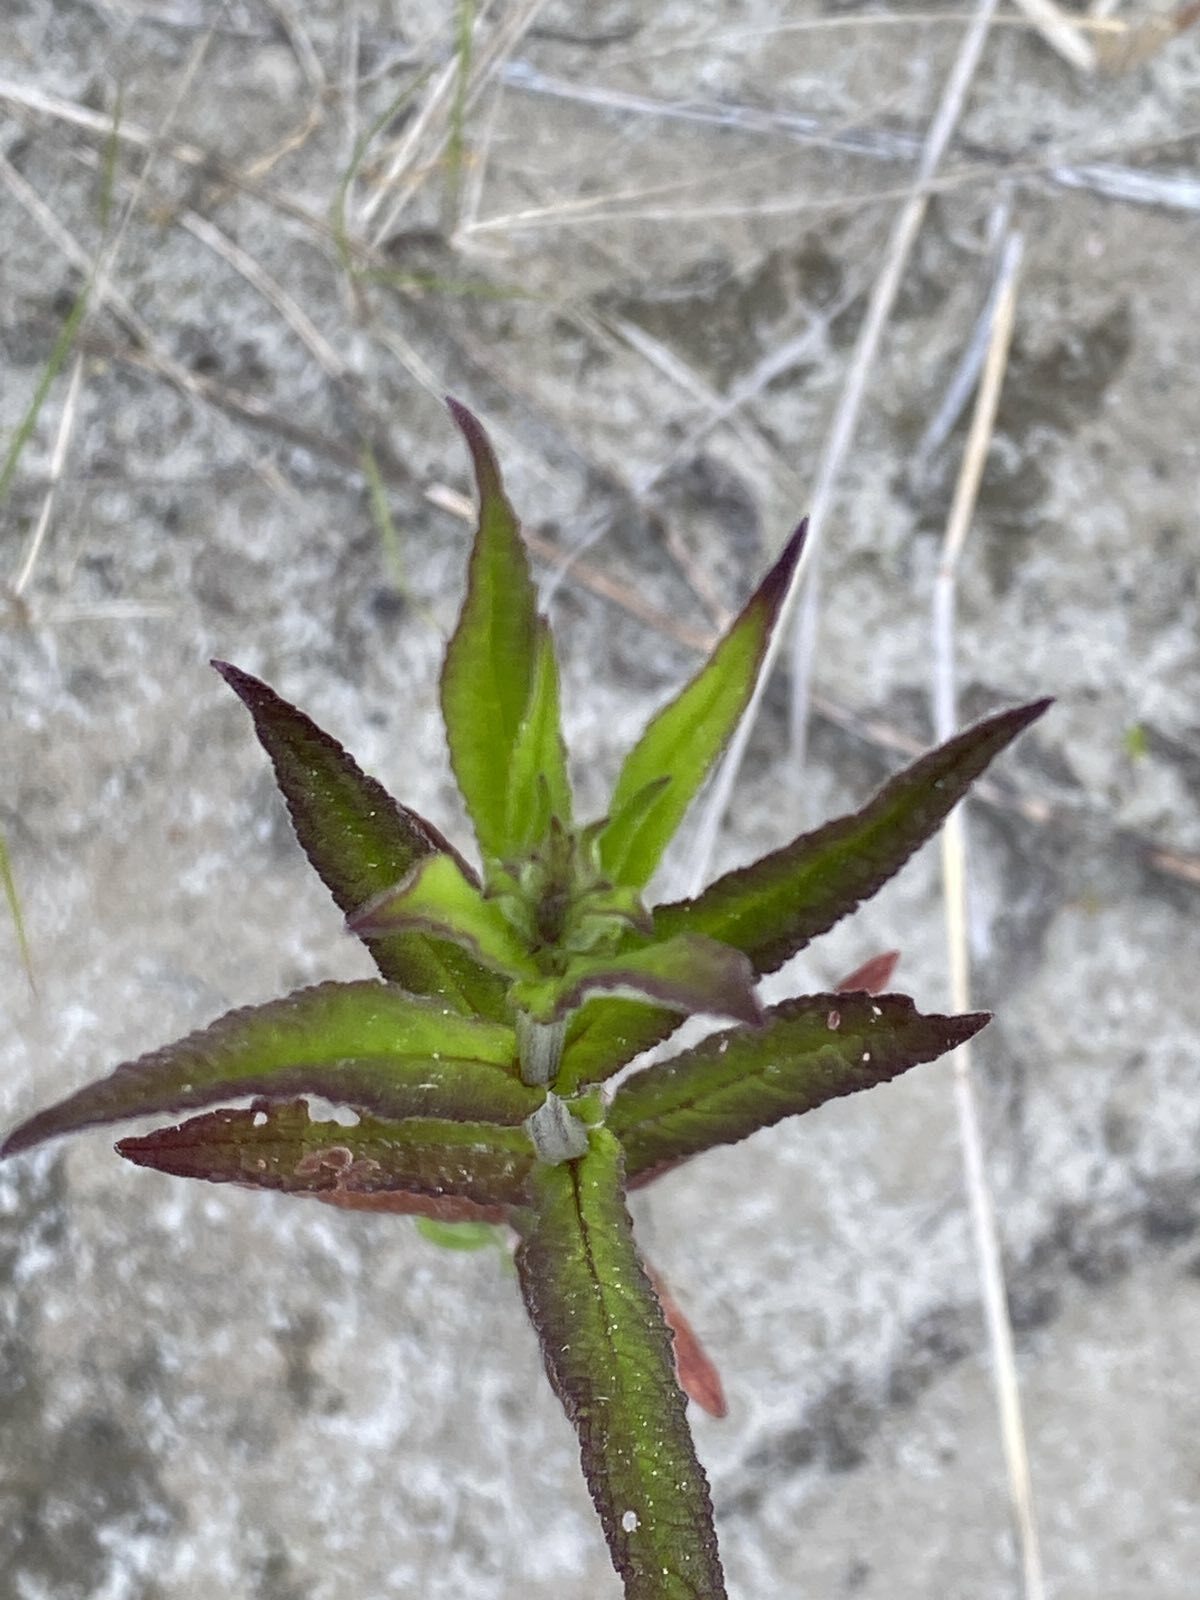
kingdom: Plantae
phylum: Tracheophyta
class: Magnoliopsida
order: Lamiales
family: Lamiaceae
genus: Stachys
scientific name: Stachys palustris
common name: Marsh woundwort
